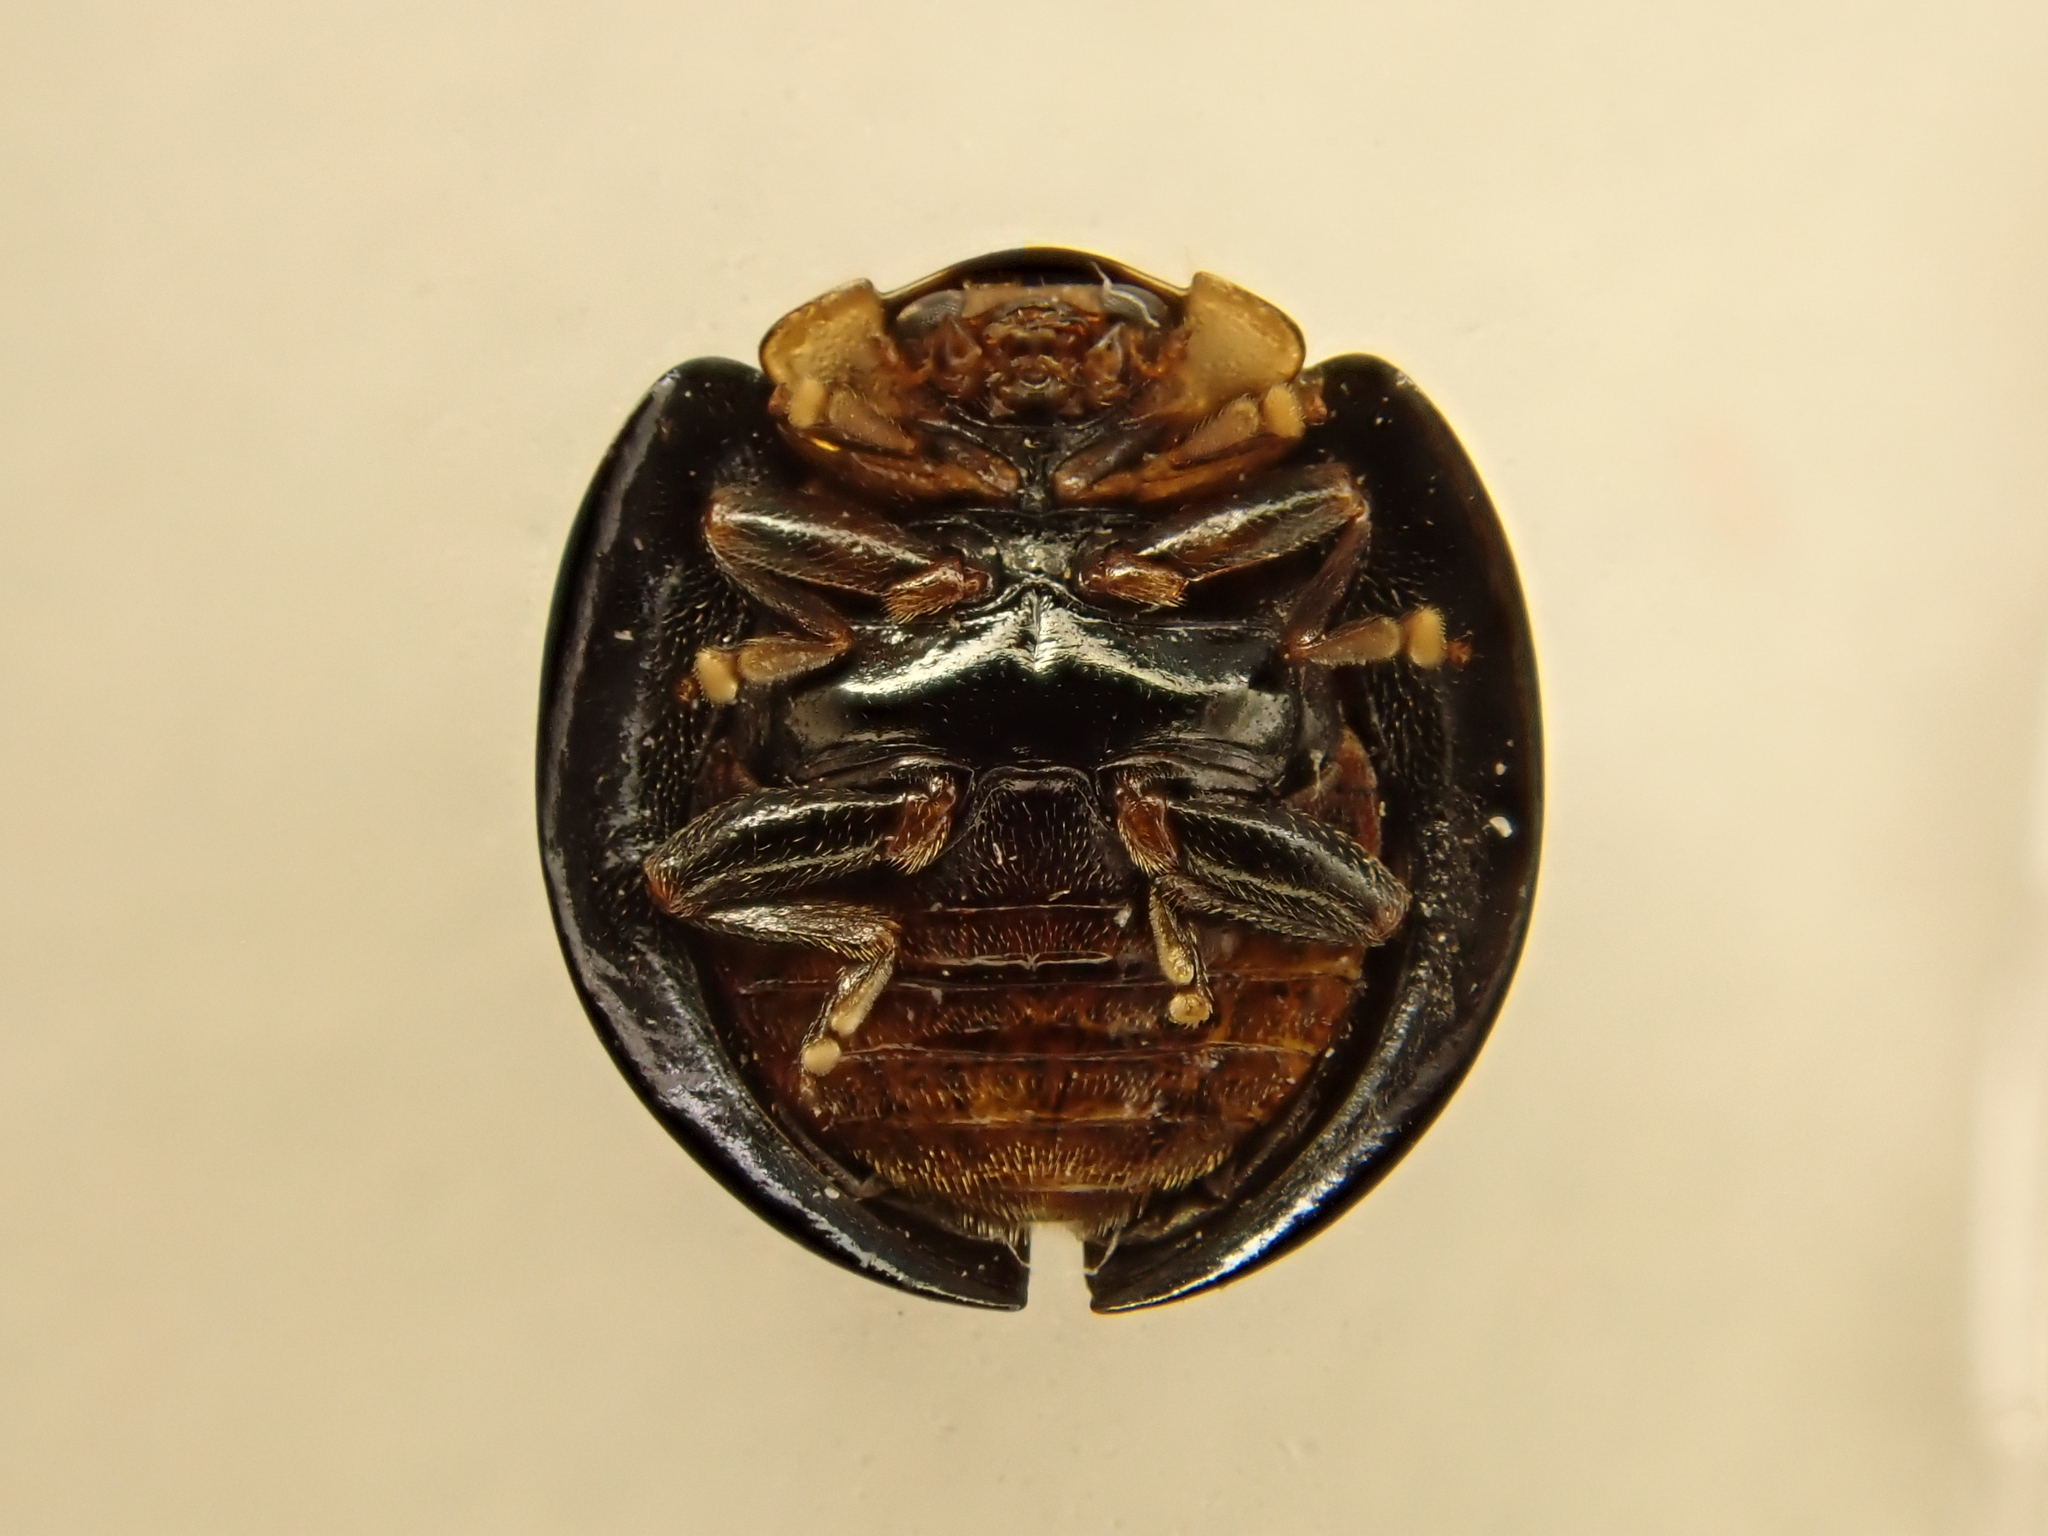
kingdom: Animalia
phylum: Arthropoda
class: Insecta
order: Coleoptera
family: Coccinellidae
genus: Halmus
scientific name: Halmus chalybeus
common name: Steel blue ladybird beetle
